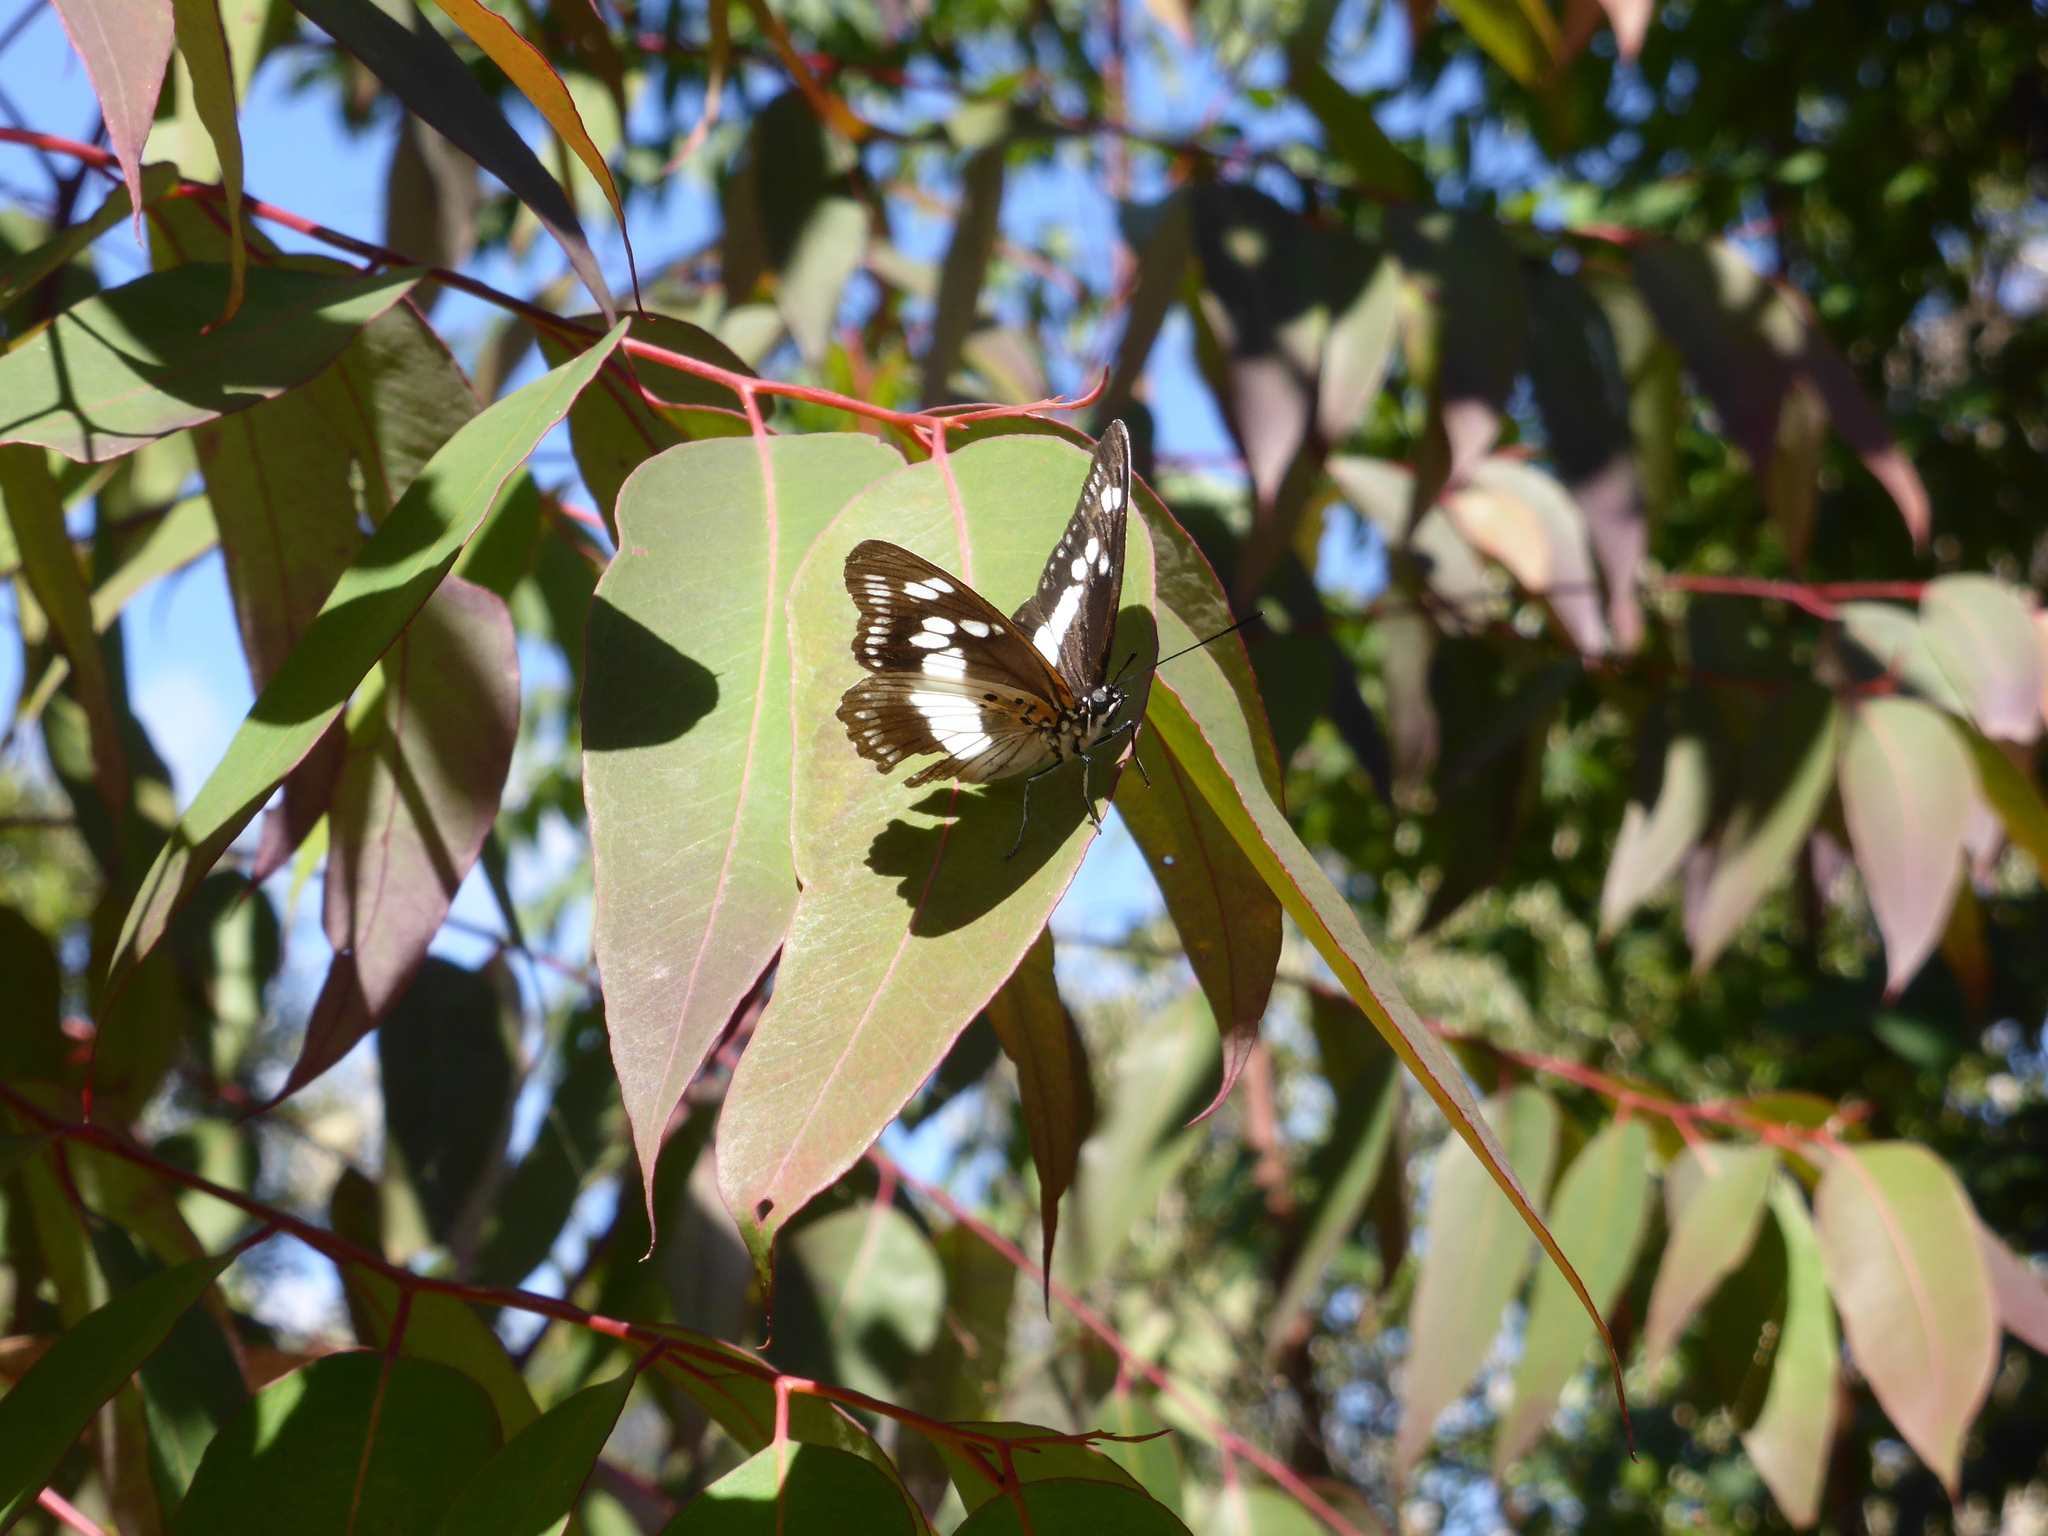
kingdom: Animalia
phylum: Arthropoda
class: Insecta
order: Lepidoptera
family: Nymphalidae
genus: Chloropoea
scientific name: Chloropoea lucretia
